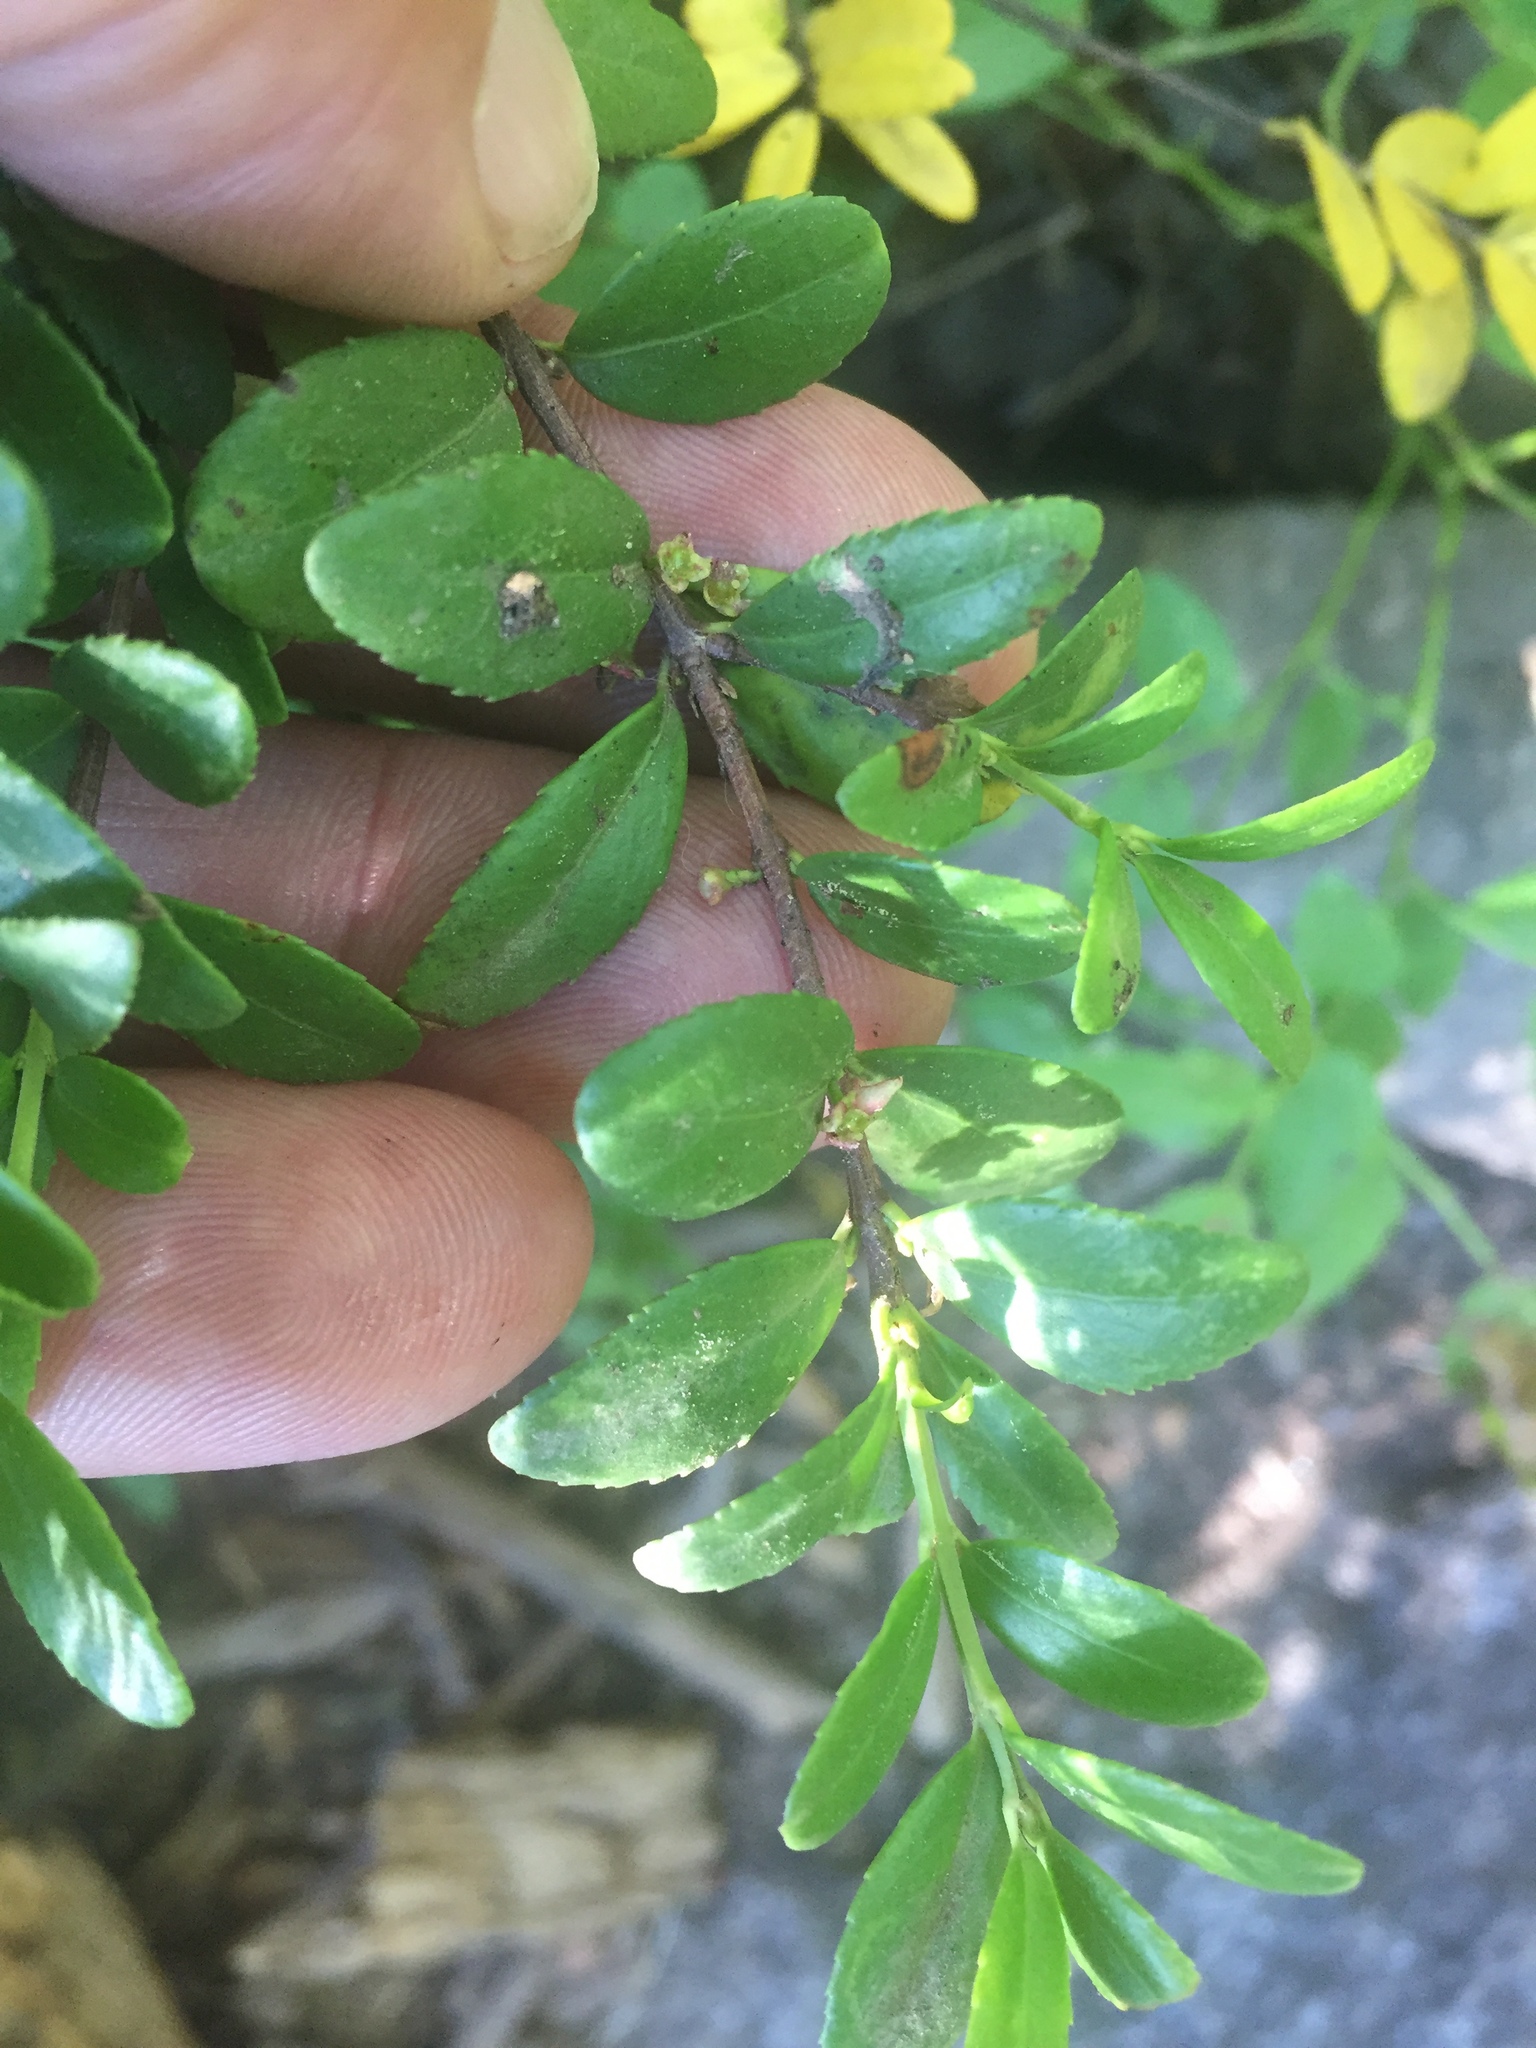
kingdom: Plantae
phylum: Tracheophyta
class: Magnoliopsida
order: Celastrales
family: Celastraceae
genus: Paxistima
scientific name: Paxistima myrsinites
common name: Mountain-lover
